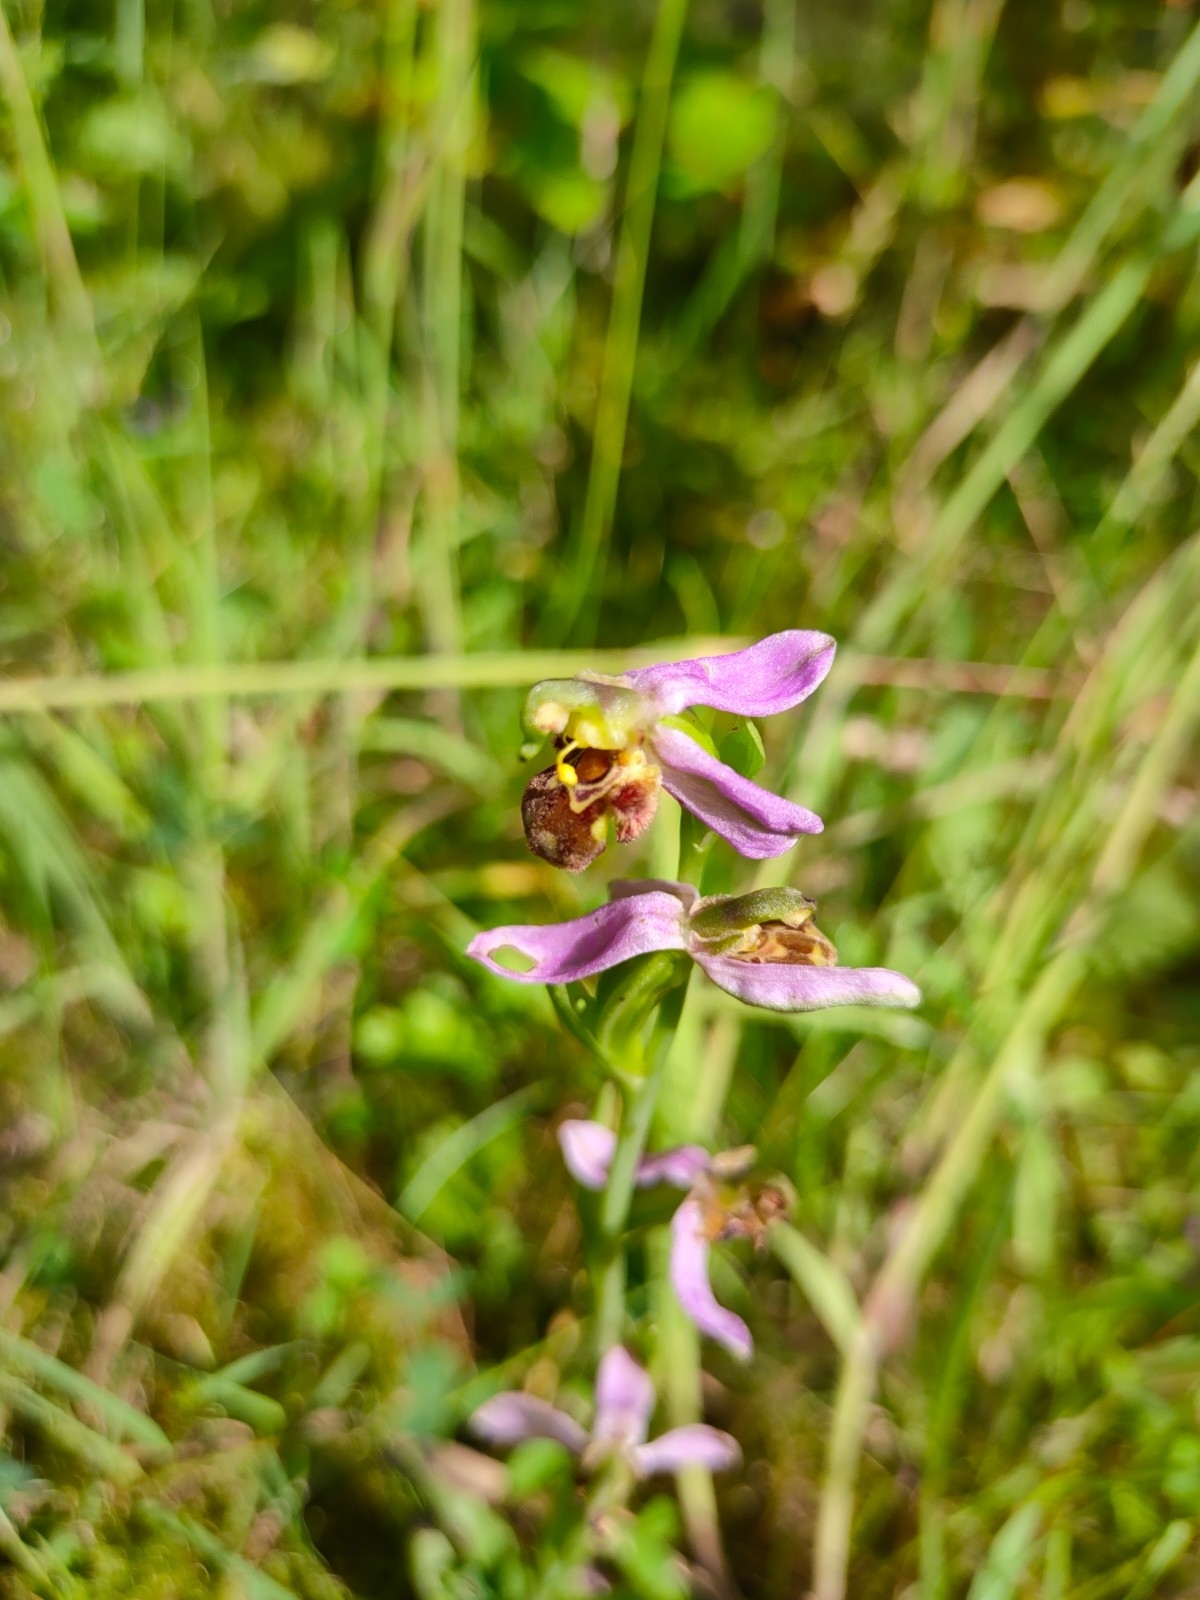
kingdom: Plantae
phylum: Tracheophyta
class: Liliopsida
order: Asparagales
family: Orchidaceae
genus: Ophrys
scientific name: Ophrys apifera
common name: Bee orchid
